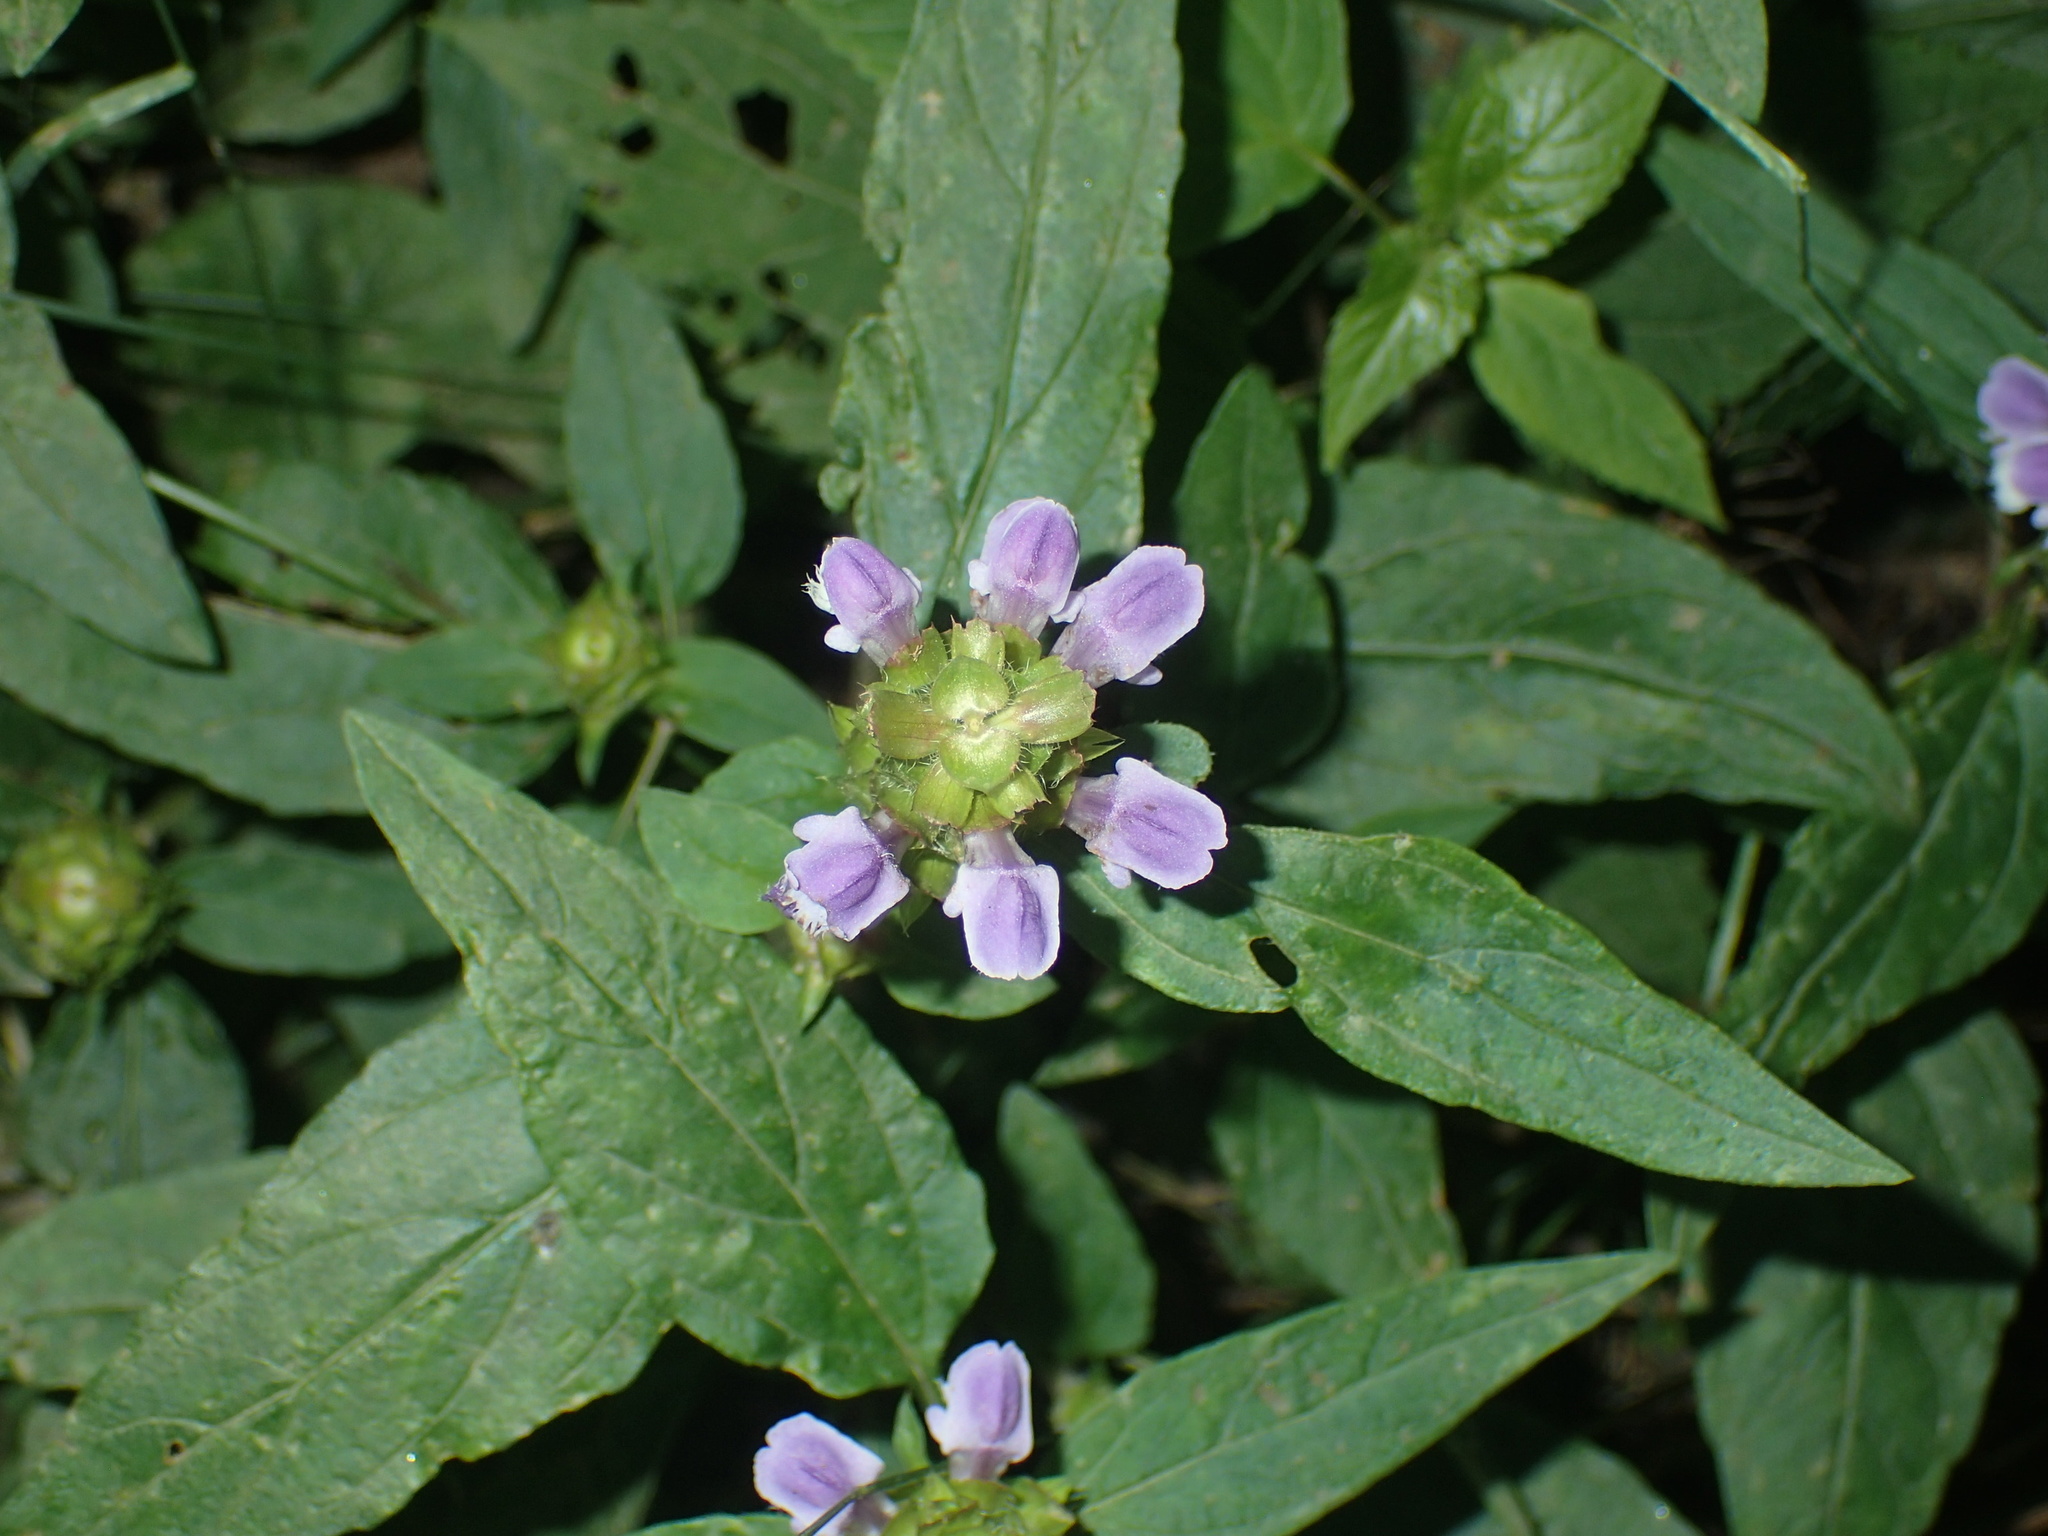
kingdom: Plantae
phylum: Tracheophyta
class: Magnoliopsida
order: Lamiales
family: Lamiaceae
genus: Prunella
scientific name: Prunella vulgaris
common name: Heal-all
